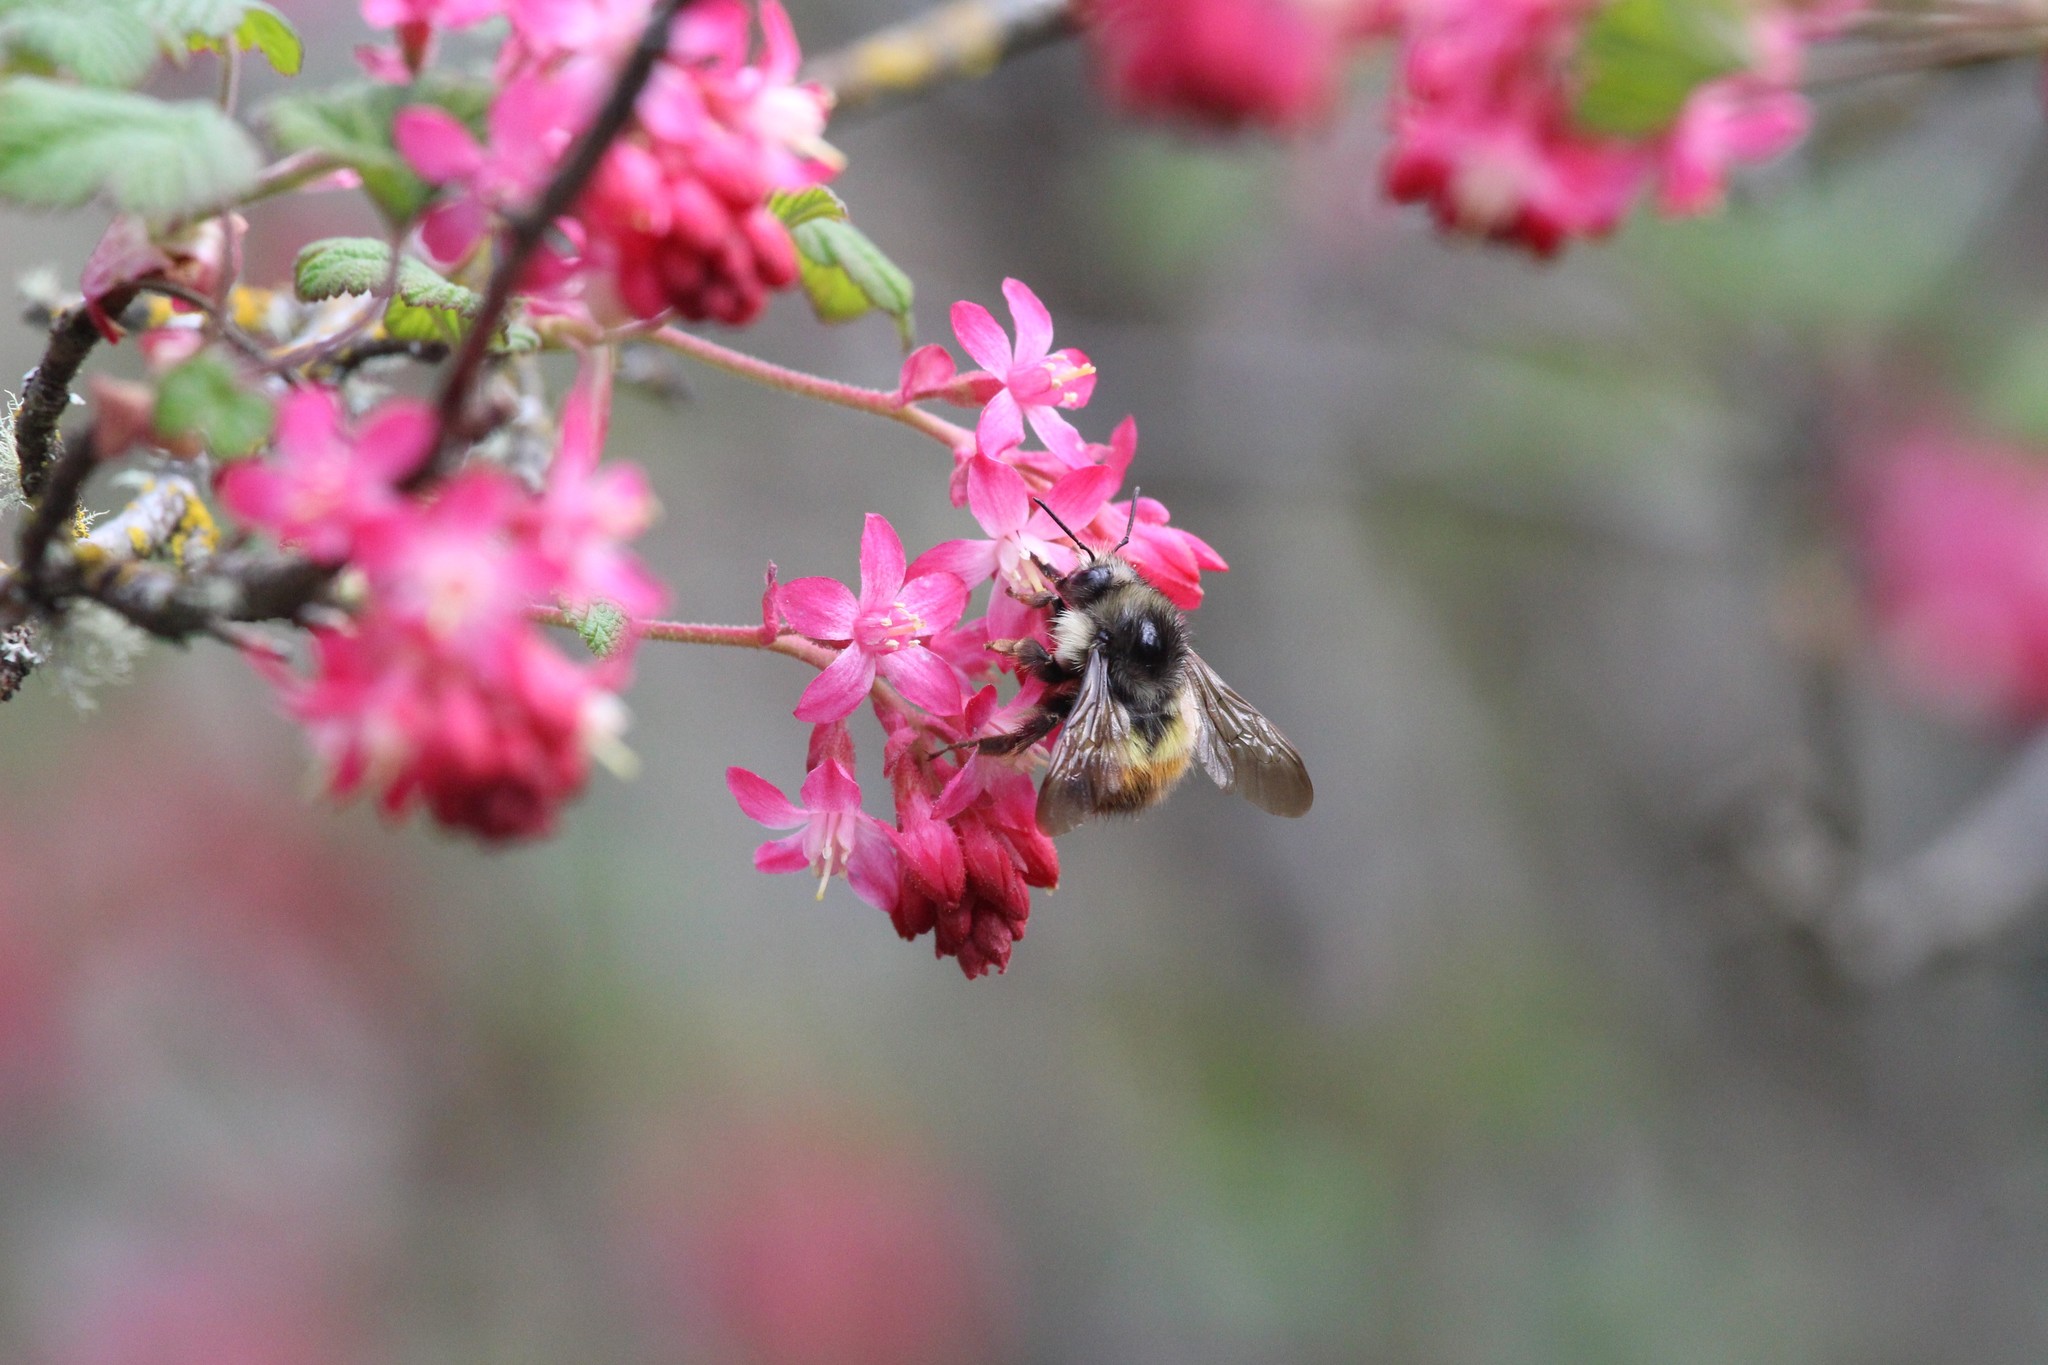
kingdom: Animalia
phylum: Arthropoda
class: Insecta
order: Hymenoptera
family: Apidae
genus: Bombus
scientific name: Bombus flavifrons
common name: Yellow head bumble bee
